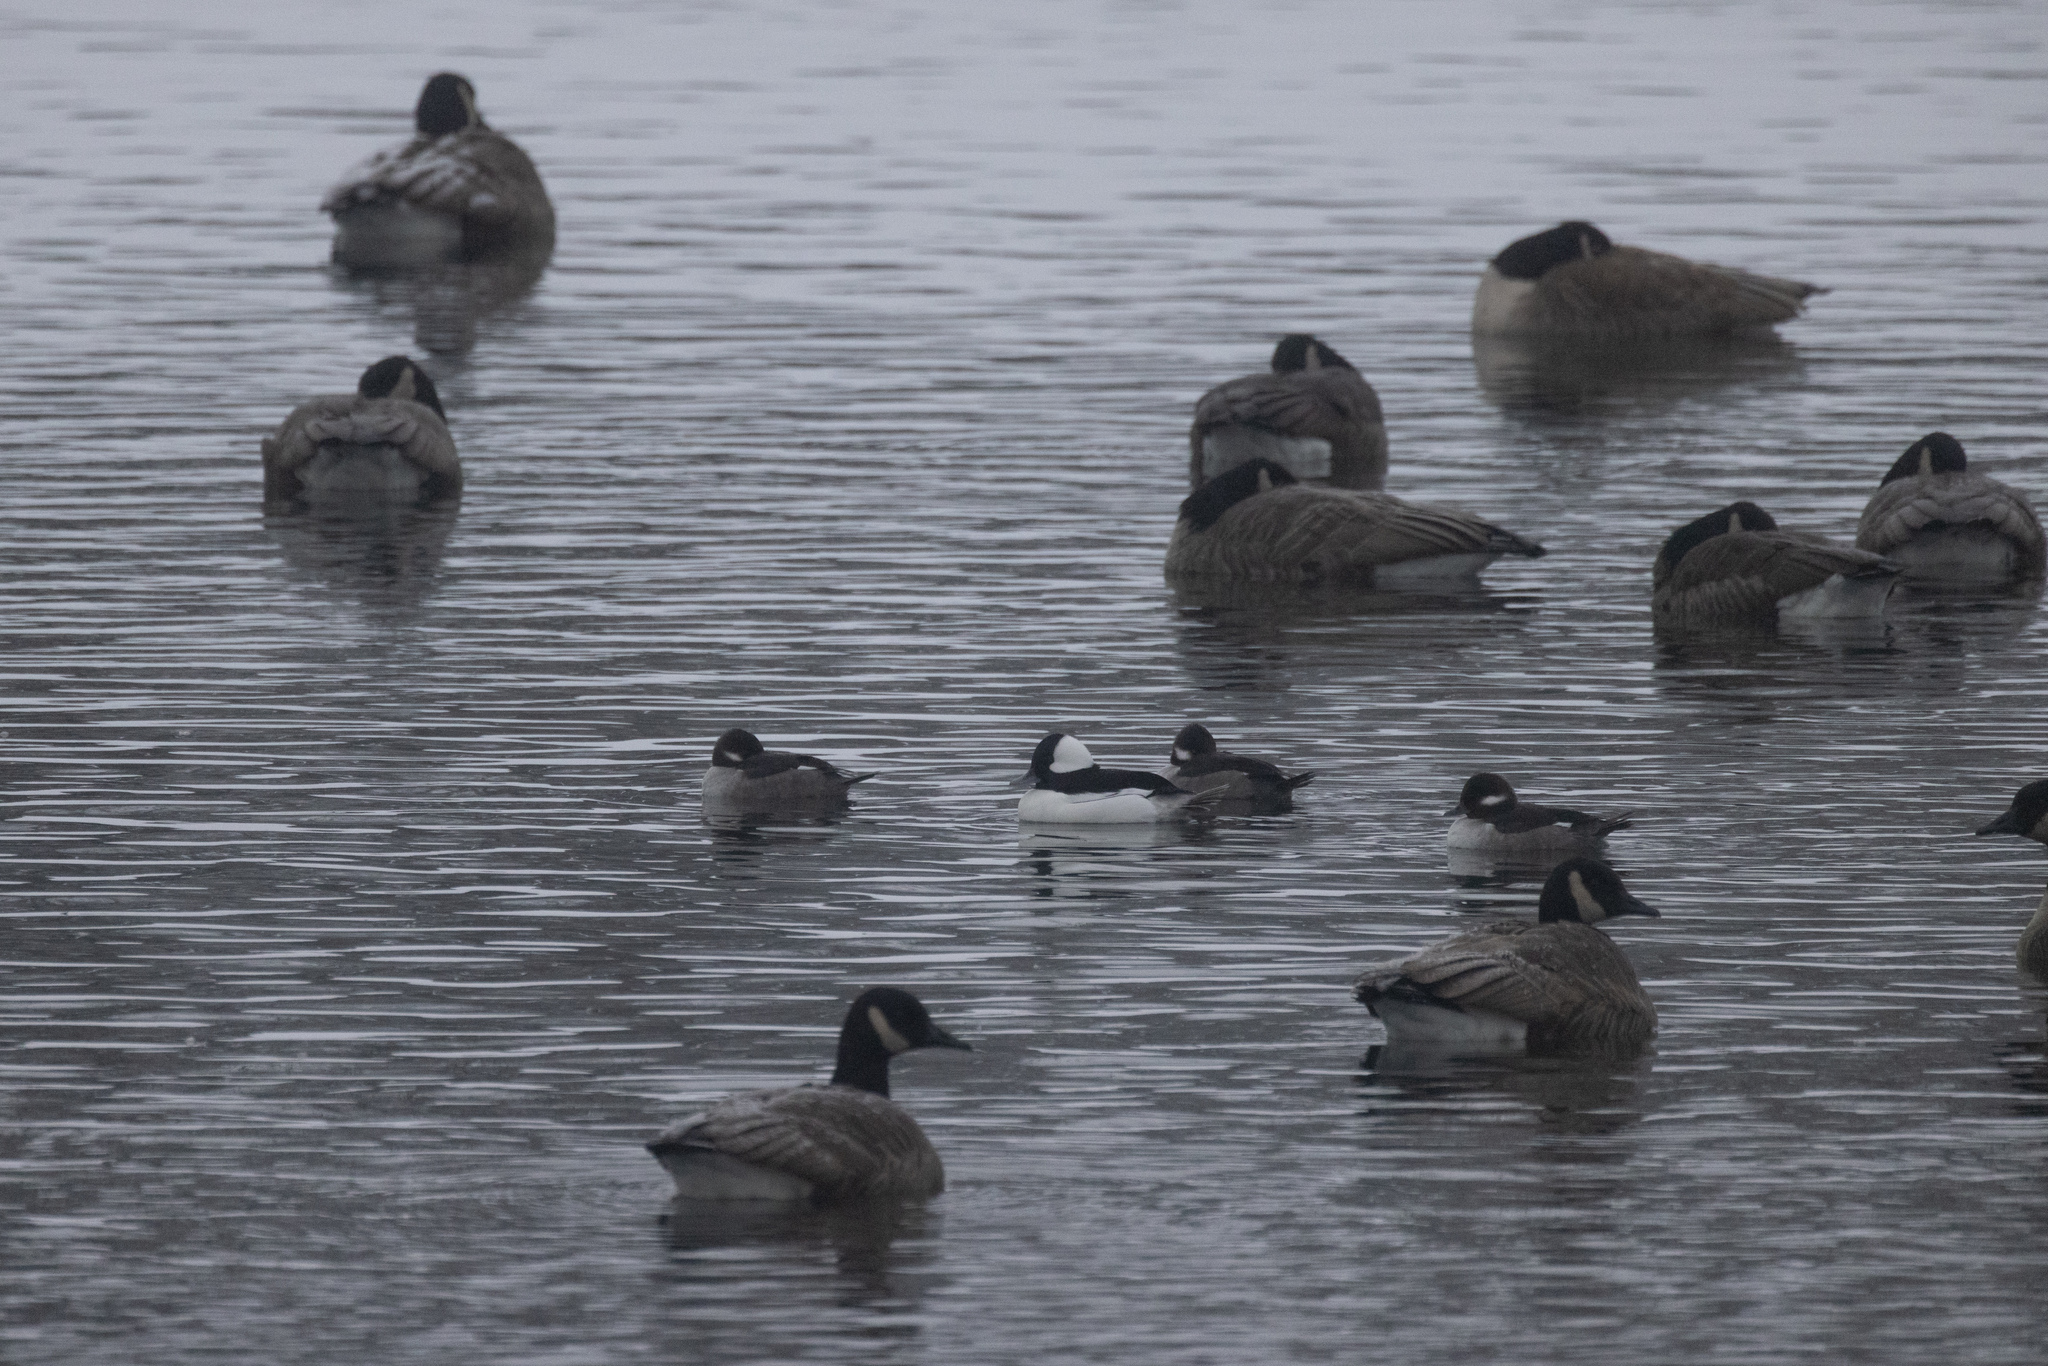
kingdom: Animalia
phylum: Chordata
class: Aves
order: Anseriformes
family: Anatidae
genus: Bucephala
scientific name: Bucephala albeola
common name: Bufflehead
